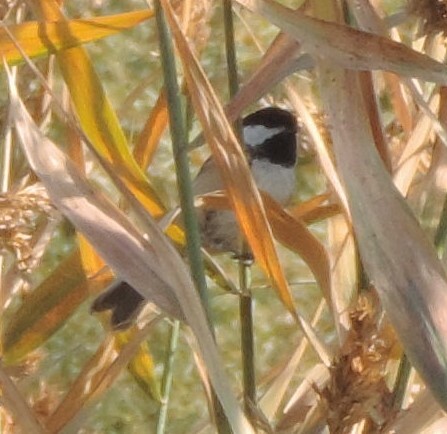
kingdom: Animalia
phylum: Chordata
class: Aves
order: Passeriformes
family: Paridae
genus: Poecile
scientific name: Poecile atricapillus
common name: Black-capped chickadee
